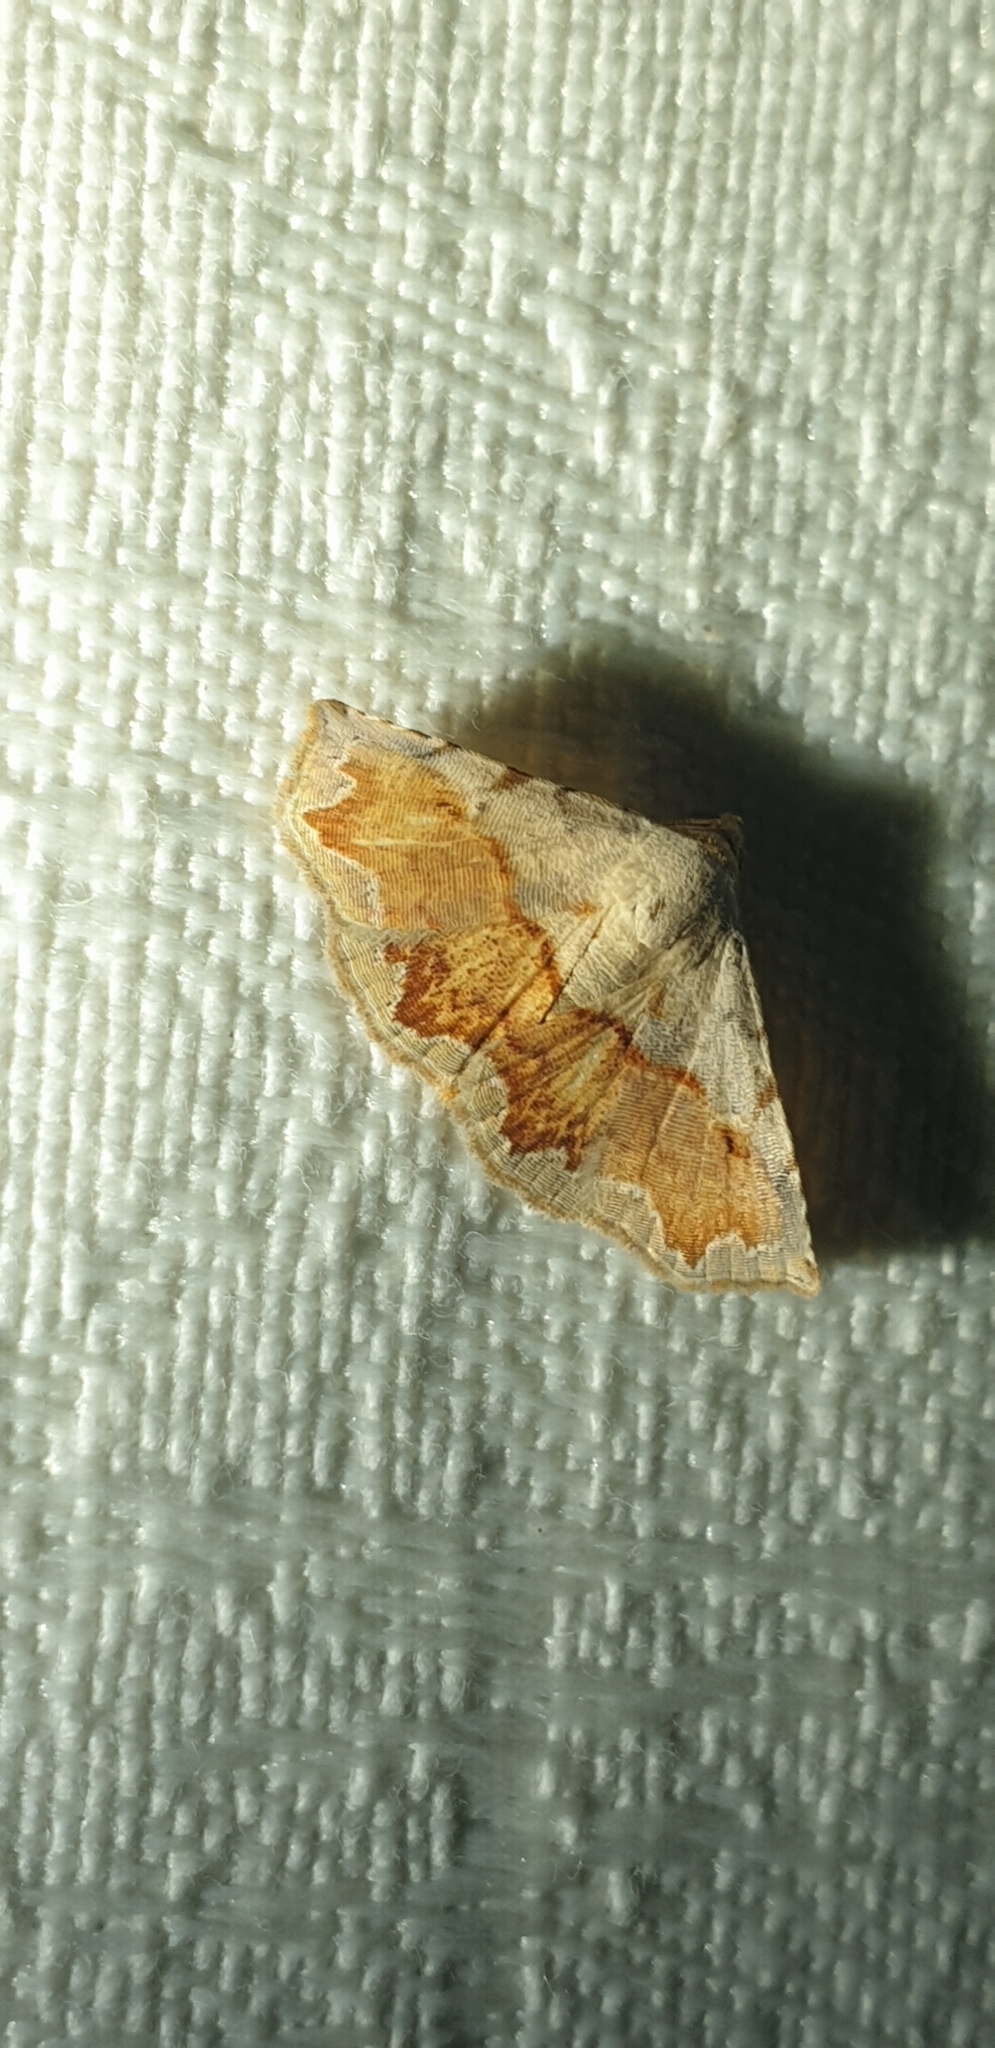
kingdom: Animalia
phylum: Arthropoda
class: Insecta
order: Lepidoptera
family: Noctuidae
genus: Eublemma
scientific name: Eublemma
